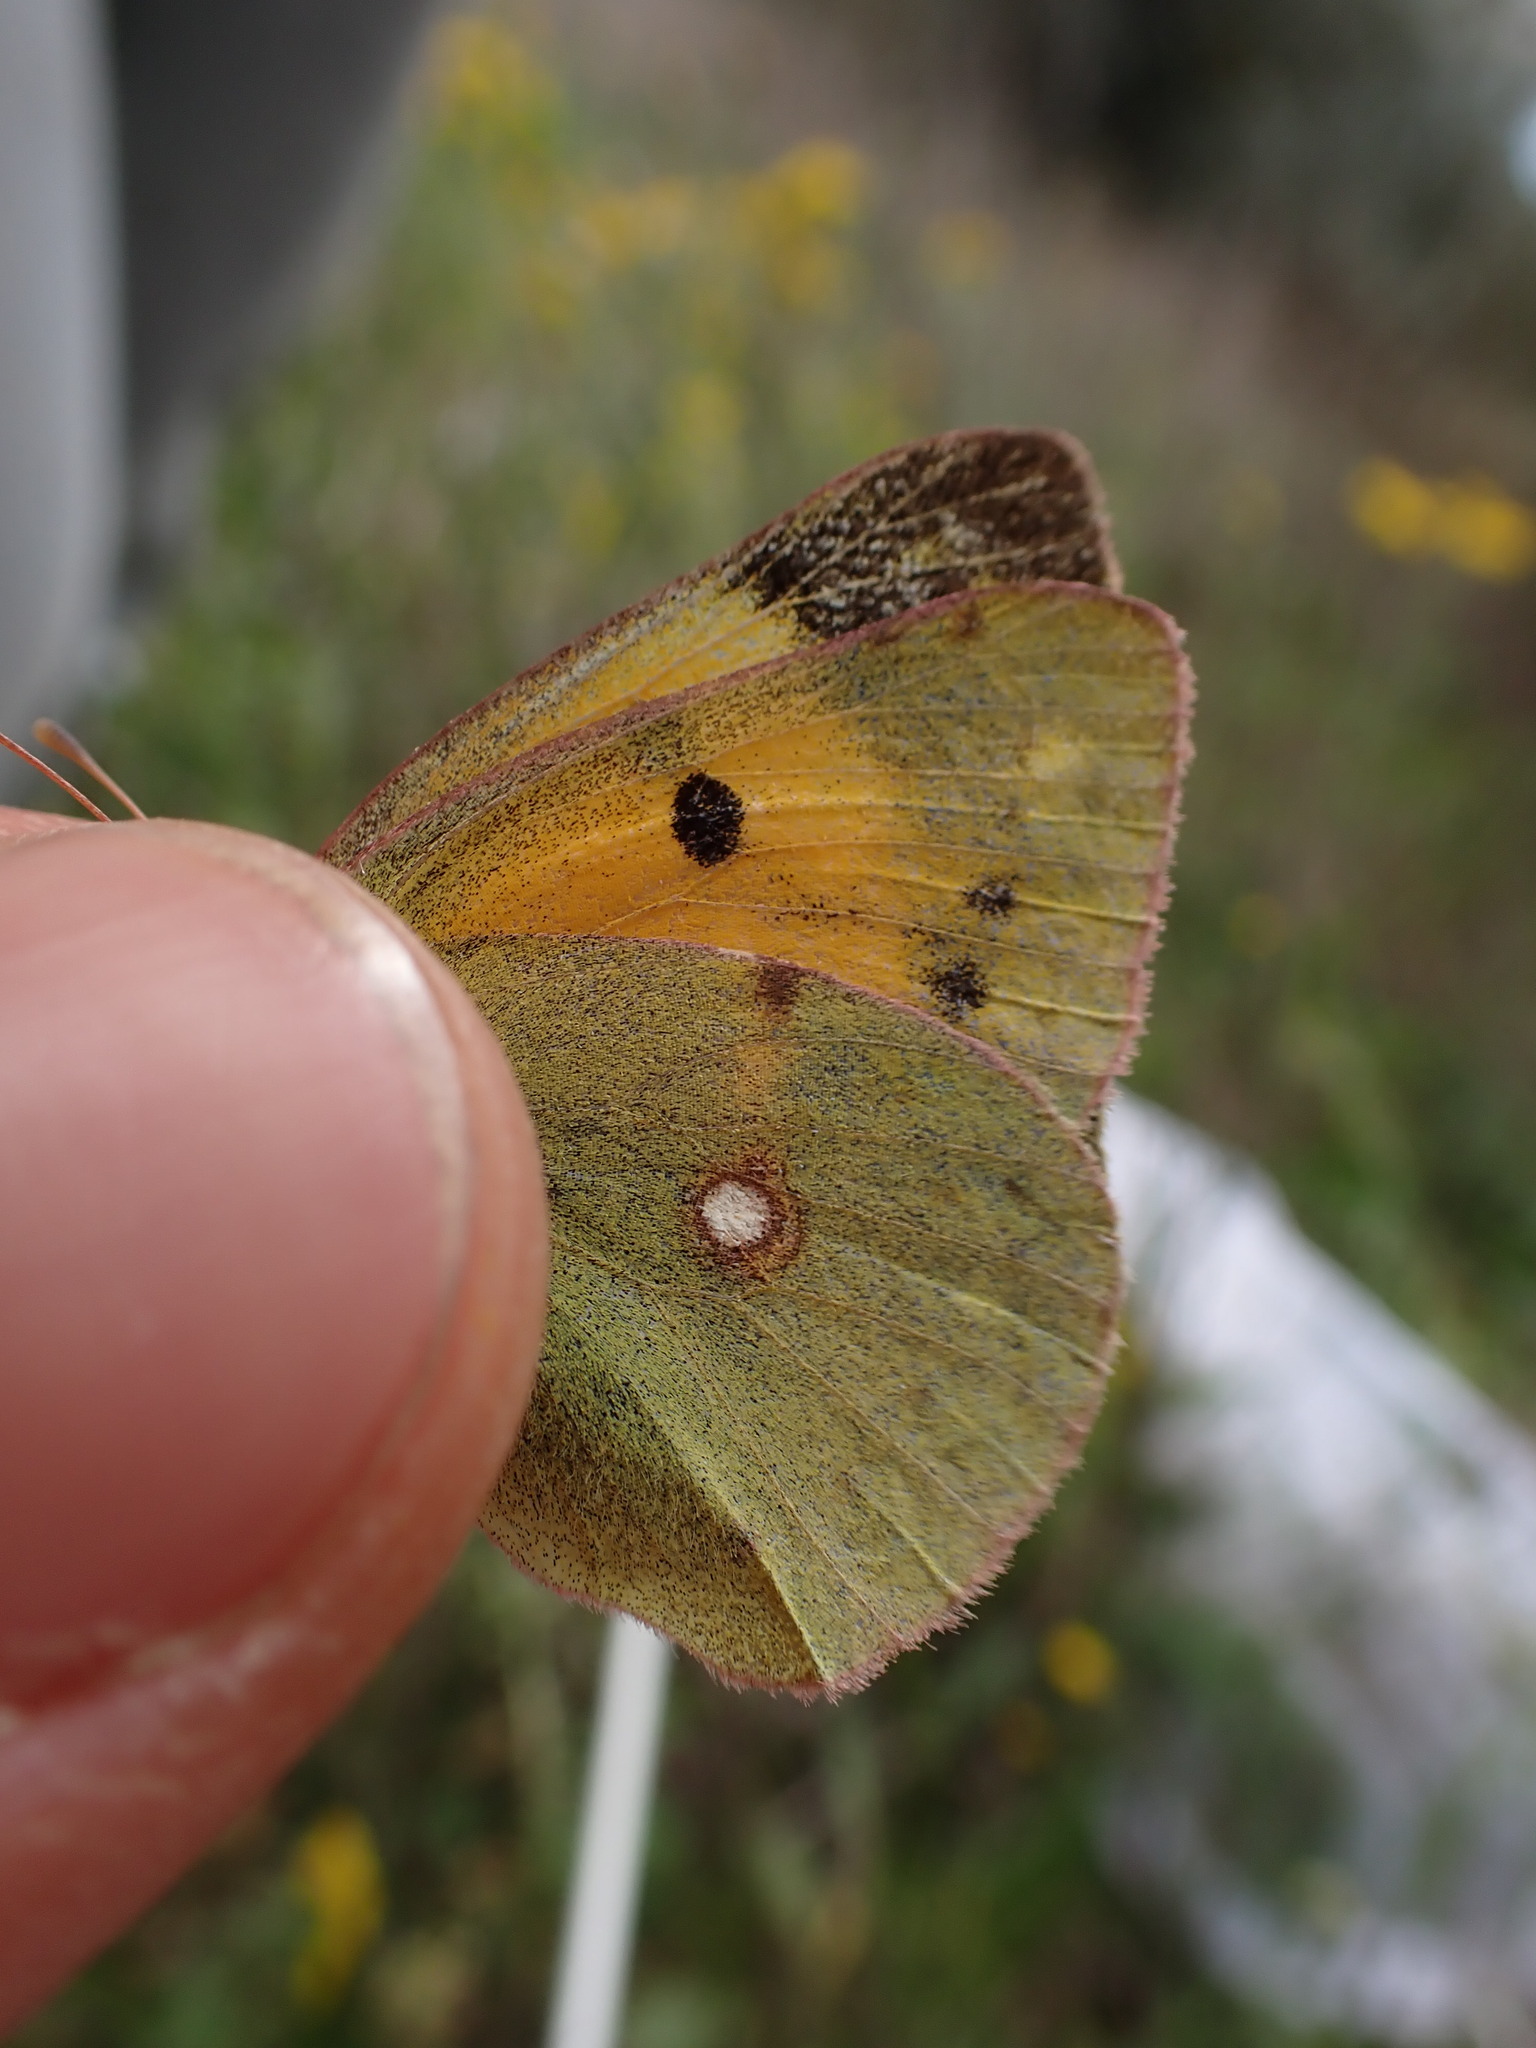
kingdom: Animalia
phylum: Arthropoda
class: Insecta
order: Lepidoptera
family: Pieridae
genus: Colias
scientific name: Colias croceus
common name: Clouded yellow
